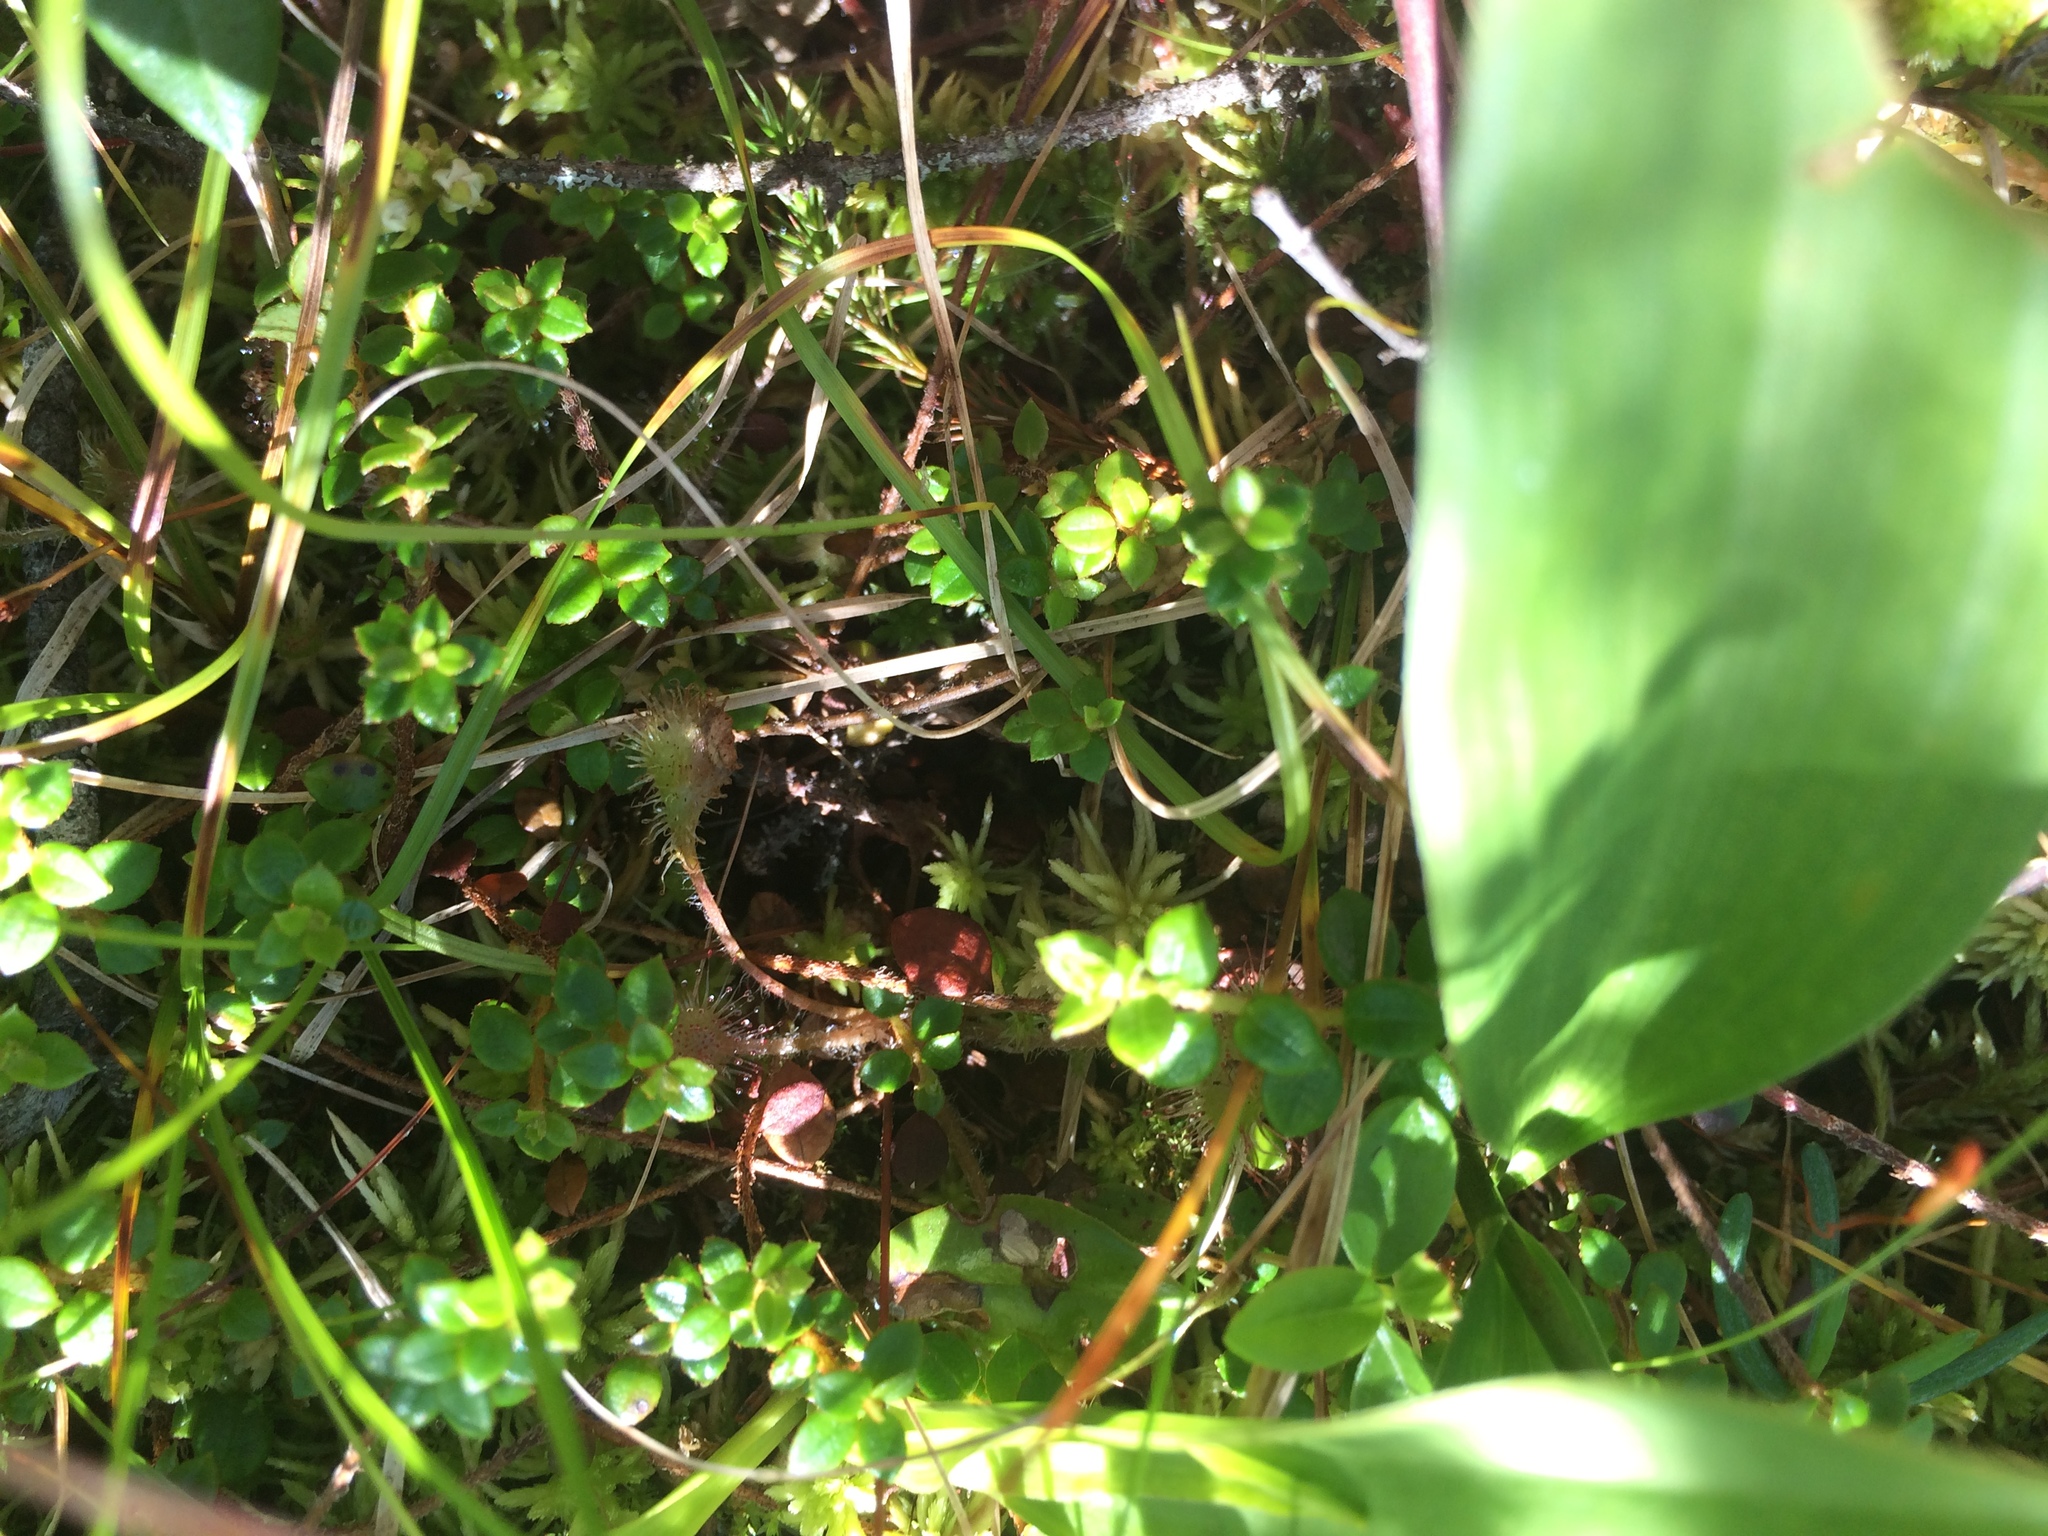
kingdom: Plantae
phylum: Tracheophyta
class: Magnoliopsida
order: Caryophyllales
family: Droseraceae
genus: Drosera
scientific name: Drosera rotundifolia
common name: Round-leaved sundew
